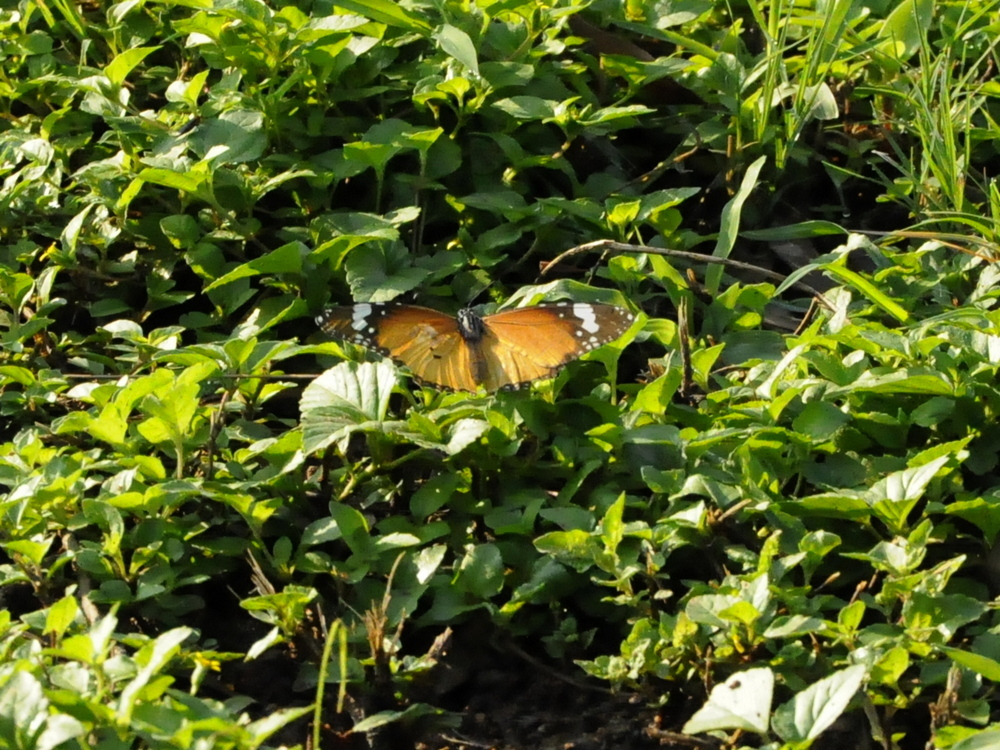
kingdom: Animalia
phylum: Arthropoda
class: Insecta
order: Lepidoptera
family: Nymphalidae
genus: Danaus
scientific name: Danaus chrysippus
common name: Plain tiger
